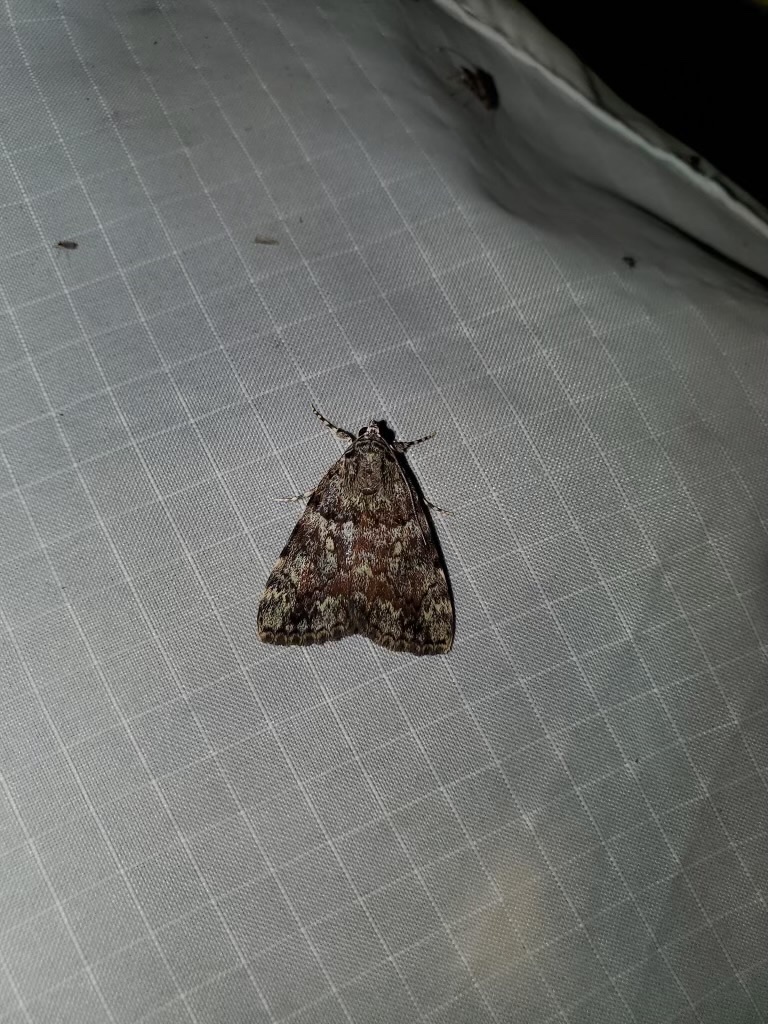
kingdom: Animalia
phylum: Arthropoda
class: Insecta
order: Lepidoptera
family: Erebidae
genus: Catocala
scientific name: Catocala lineella
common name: Little lined underwing
